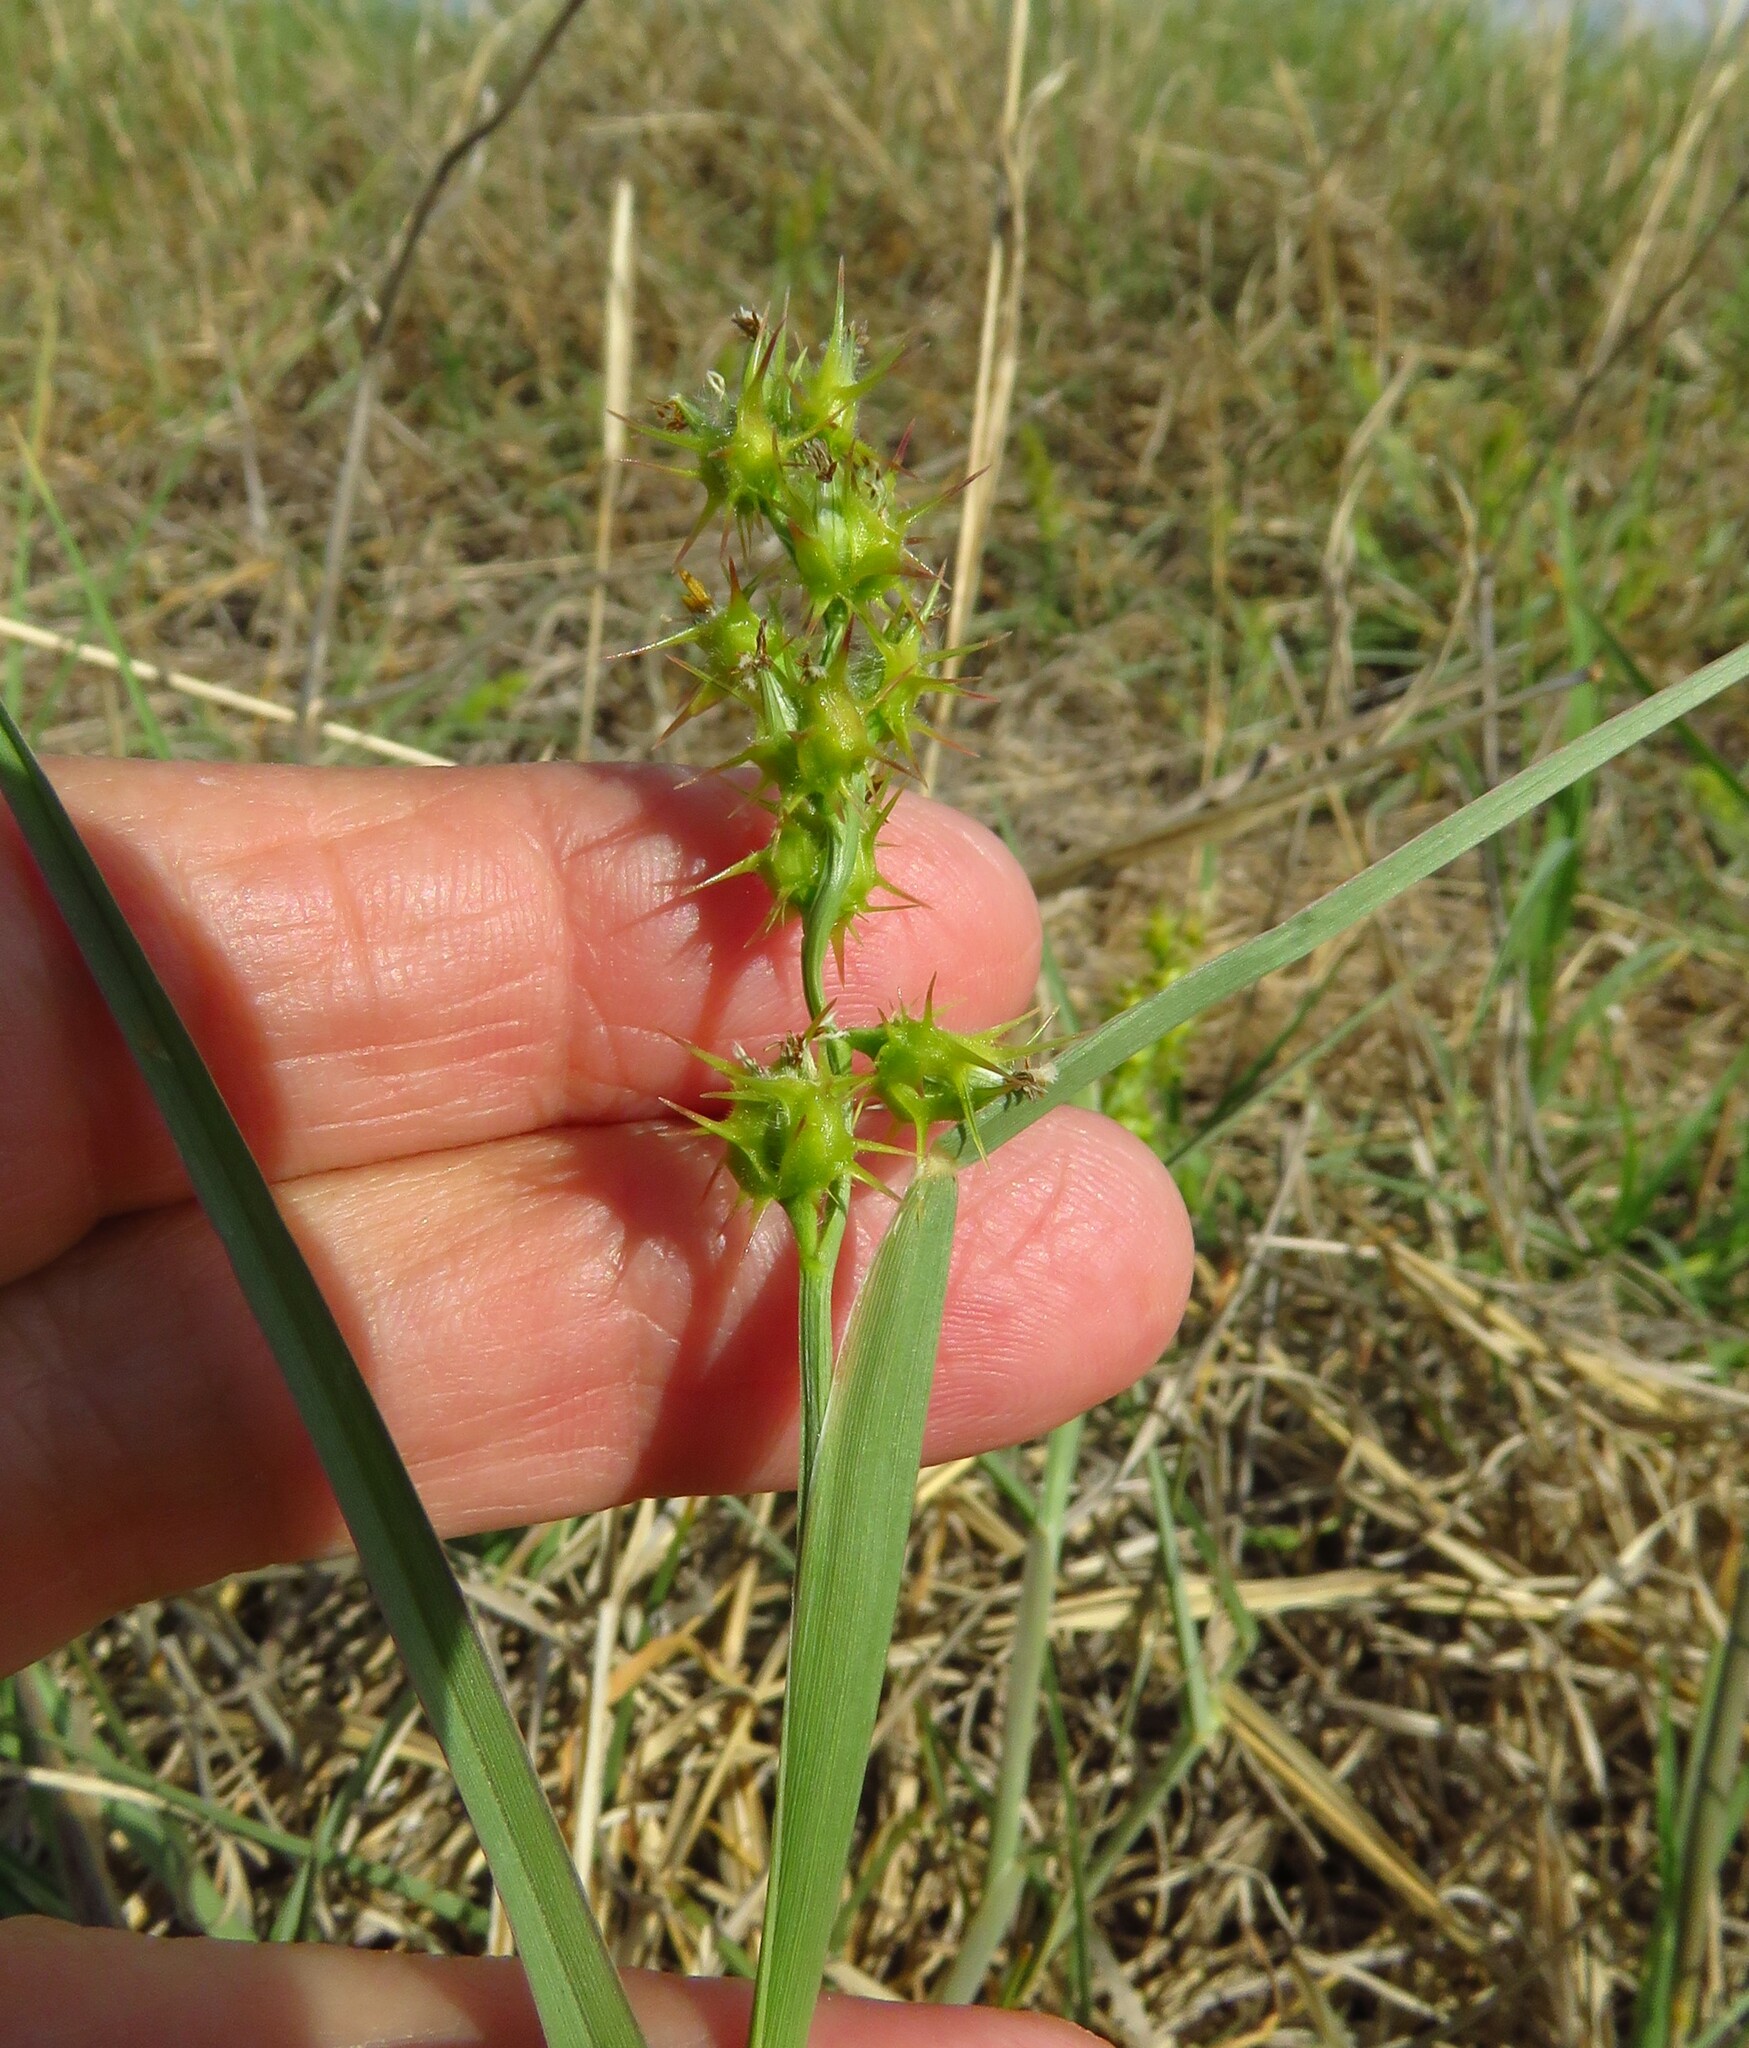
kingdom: Plantae
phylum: Tracheophyta
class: Liliopsida
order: Poales
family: Poaceae
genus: Cenchrus
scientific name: Cenchrus spinifex
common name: Coast sandbur
